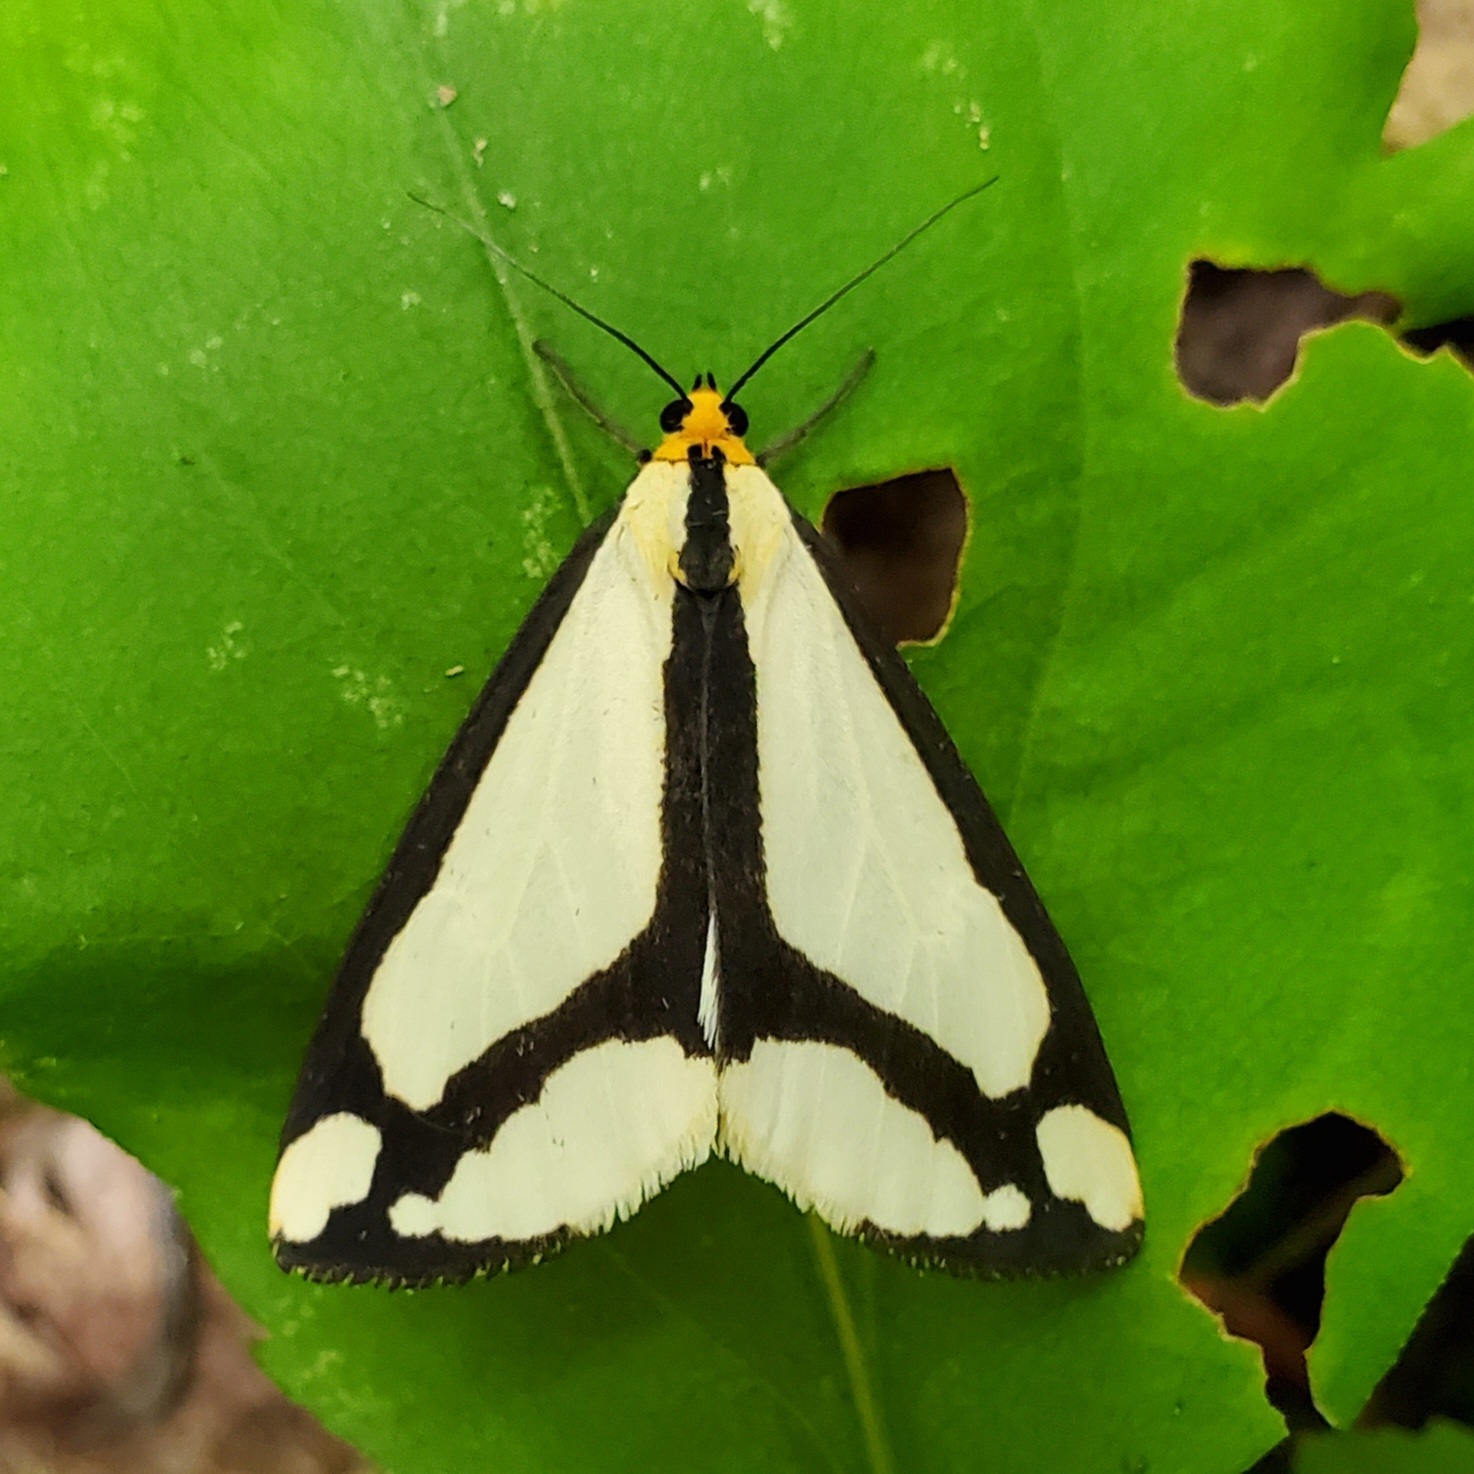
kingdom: Animalia
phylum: Arthropoda
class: Insecta
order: Lepidoptera
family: Erebidae
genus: Haploa
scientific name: Haploa lecontei
